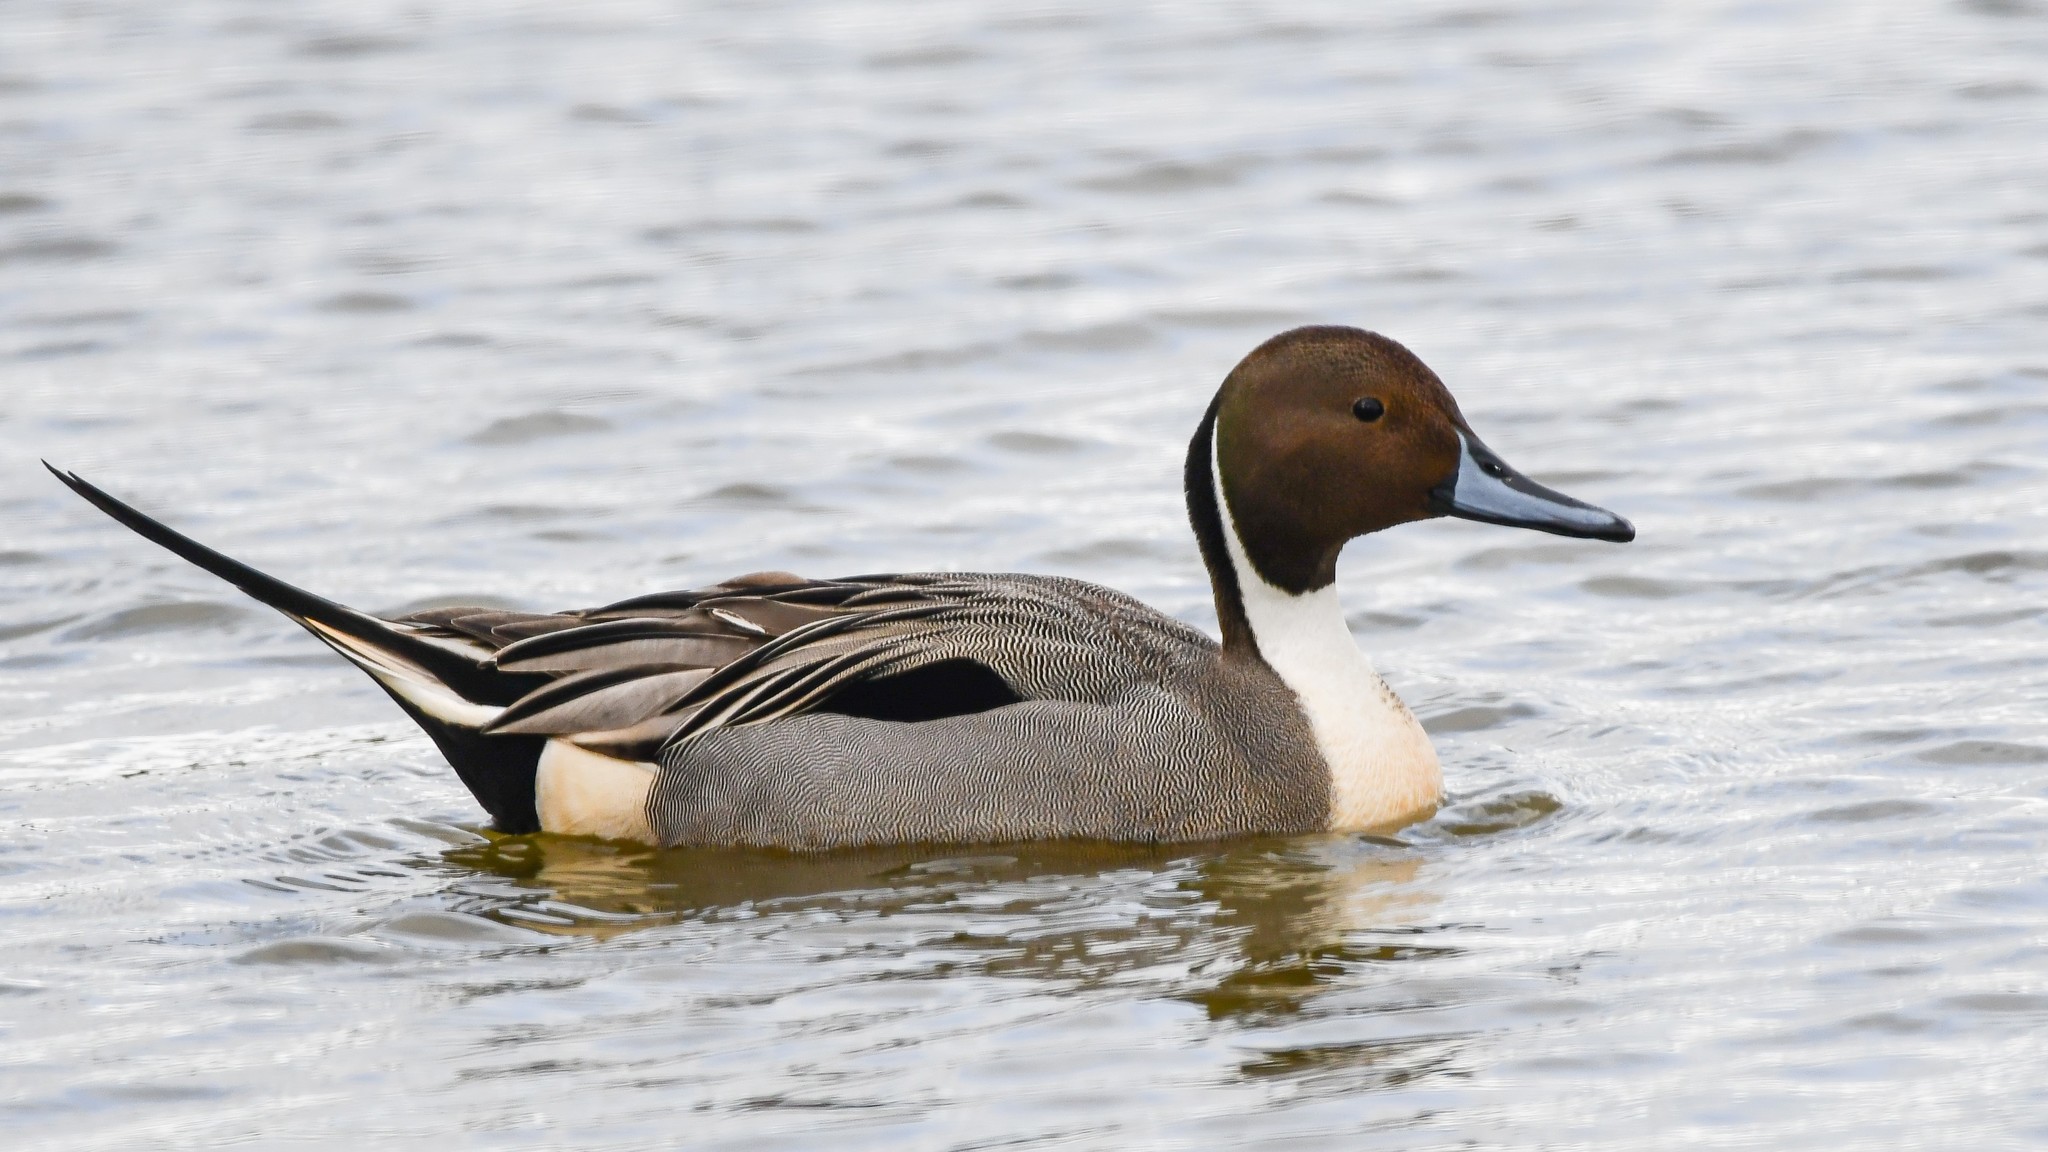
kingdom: Animalia
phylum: Chordata
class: Aves
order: Anseriformes
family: Anatidae
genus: Anas
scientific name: Anas acuta
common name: Northern pintail
